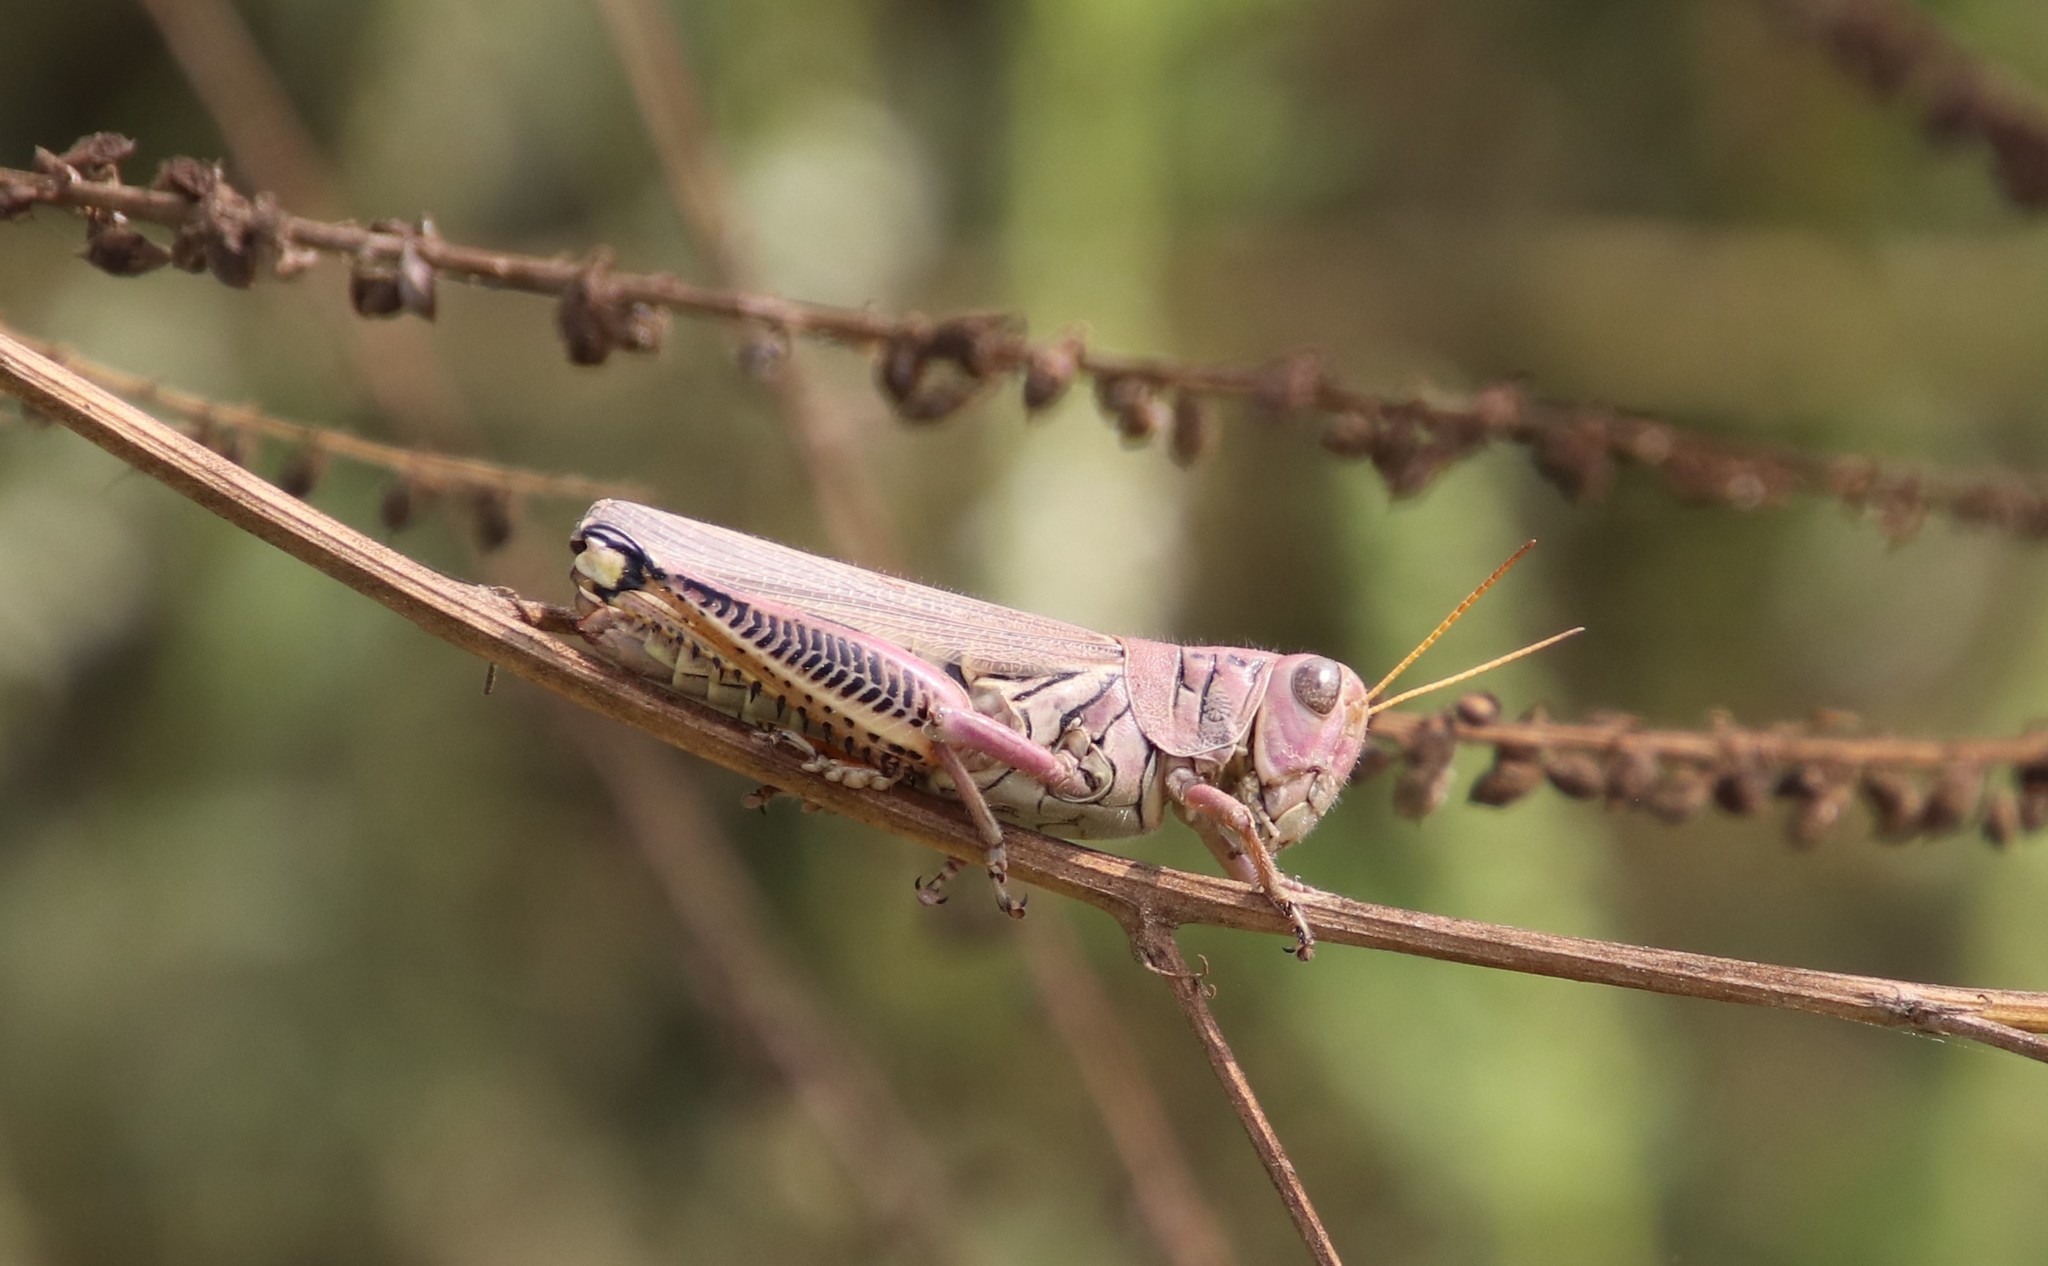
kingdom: Animalia
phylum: Arthropoda
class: Insecta
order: Orthoptera
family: Acrididae
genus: Melanoplus
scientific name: Melanoplus differentialis
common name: Differential grasshopper
